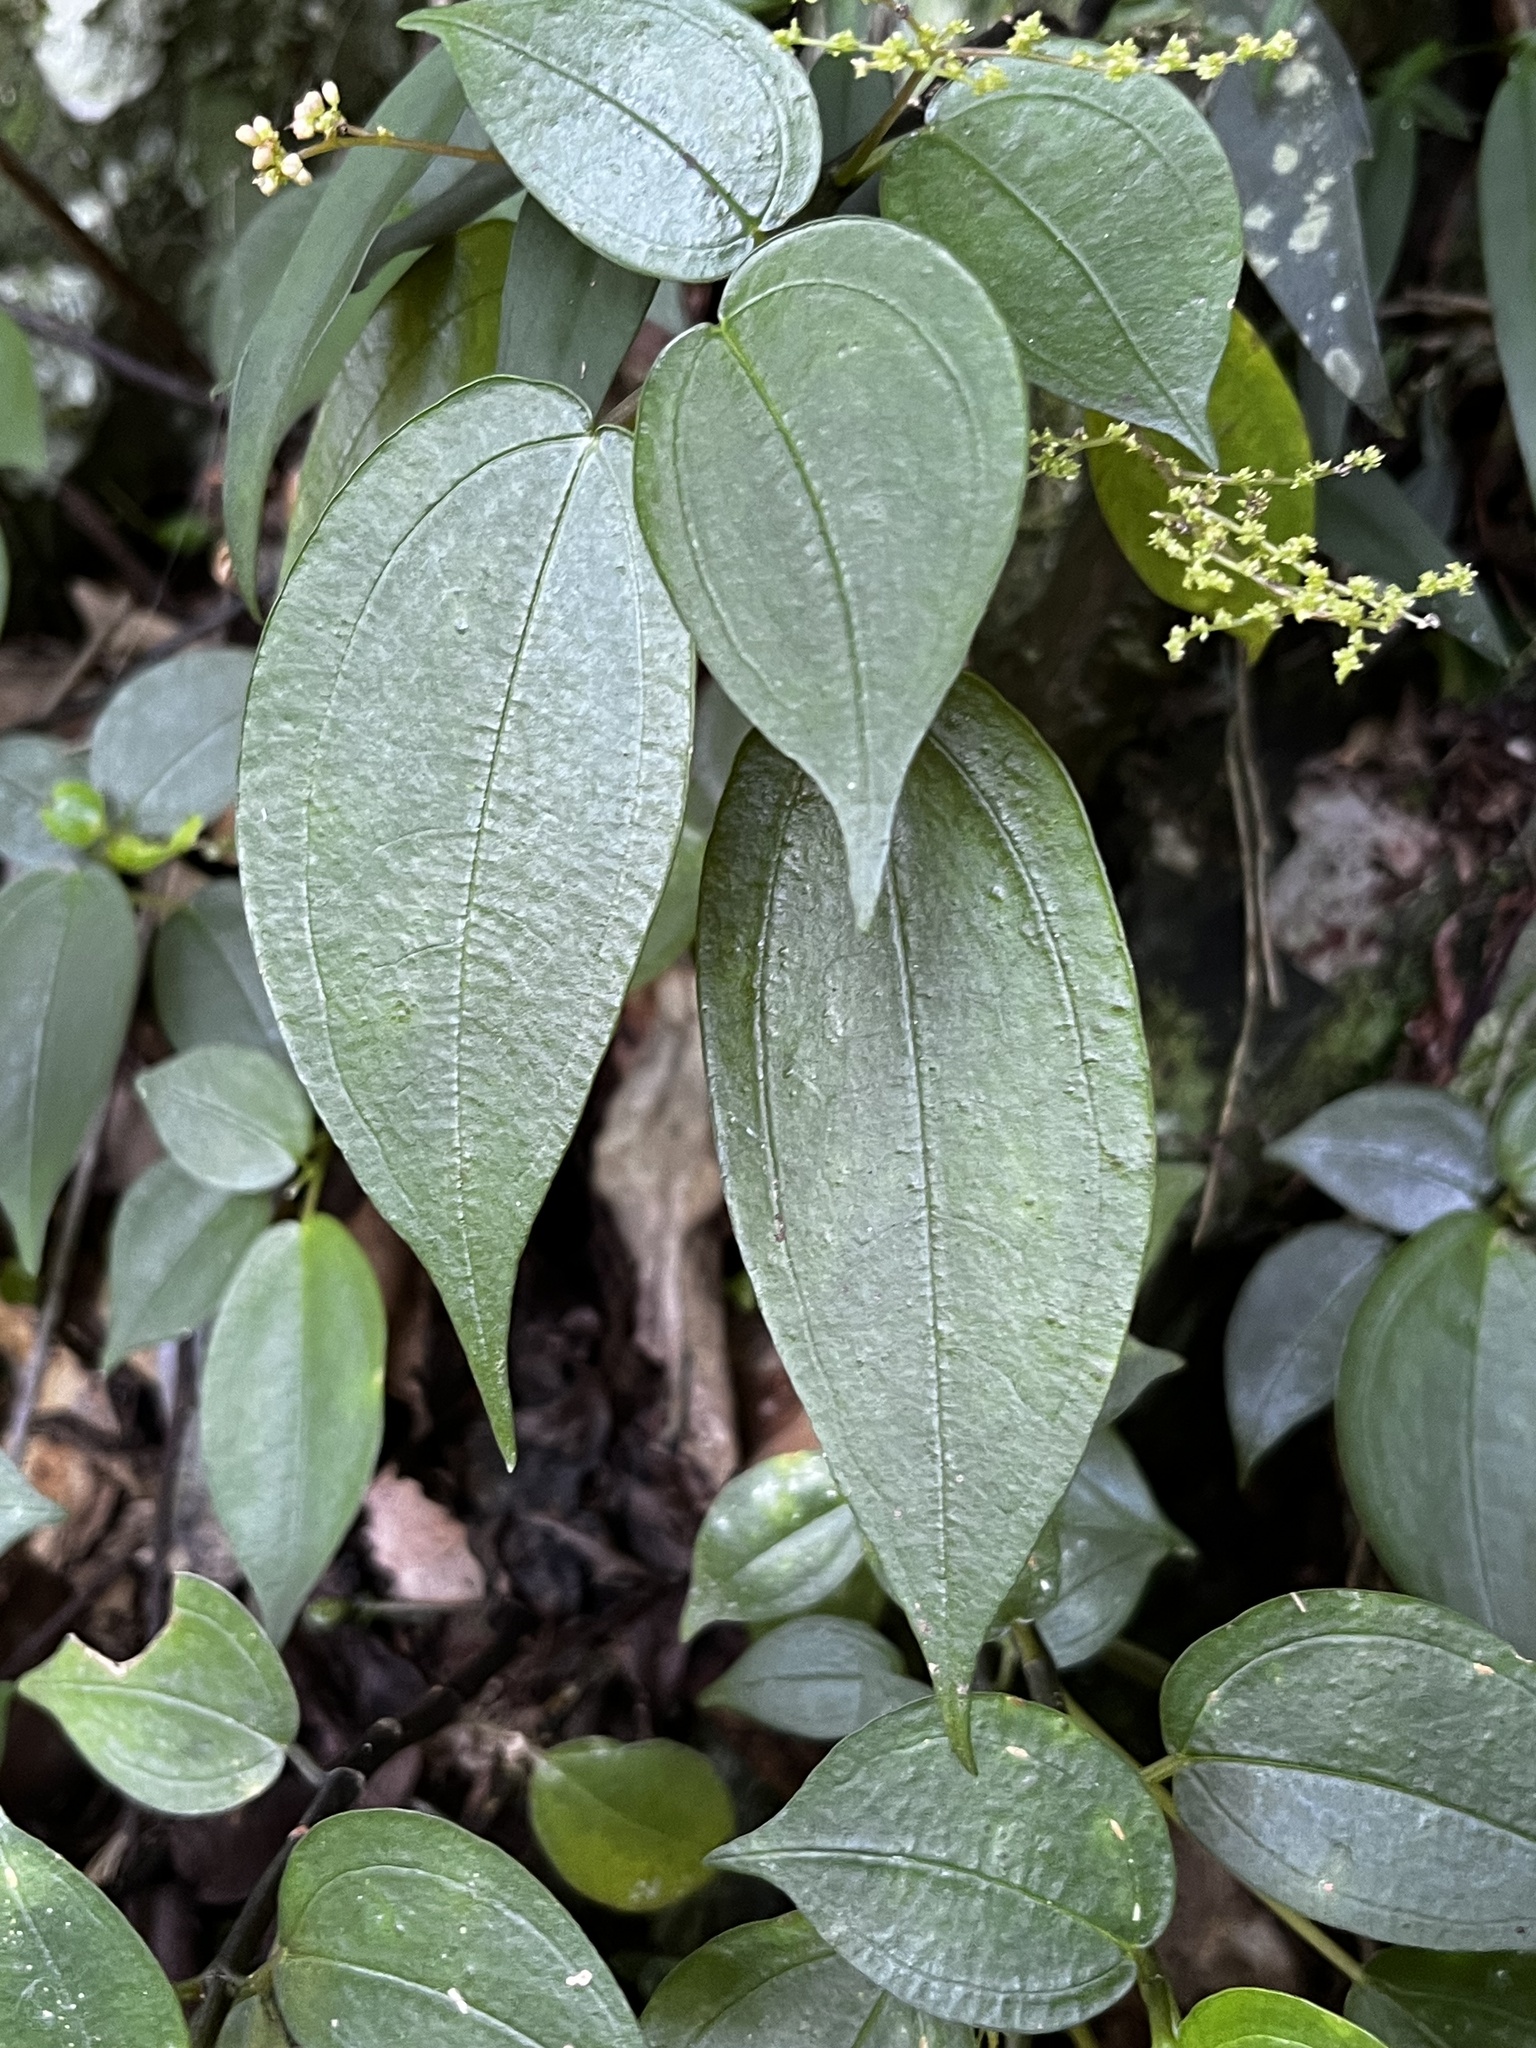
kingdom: Plantae
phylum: Tracheophyta
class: Magnoliopsida
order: Rosales
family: Urticaceae
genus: Pilea
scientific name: Pilea plataniflora
